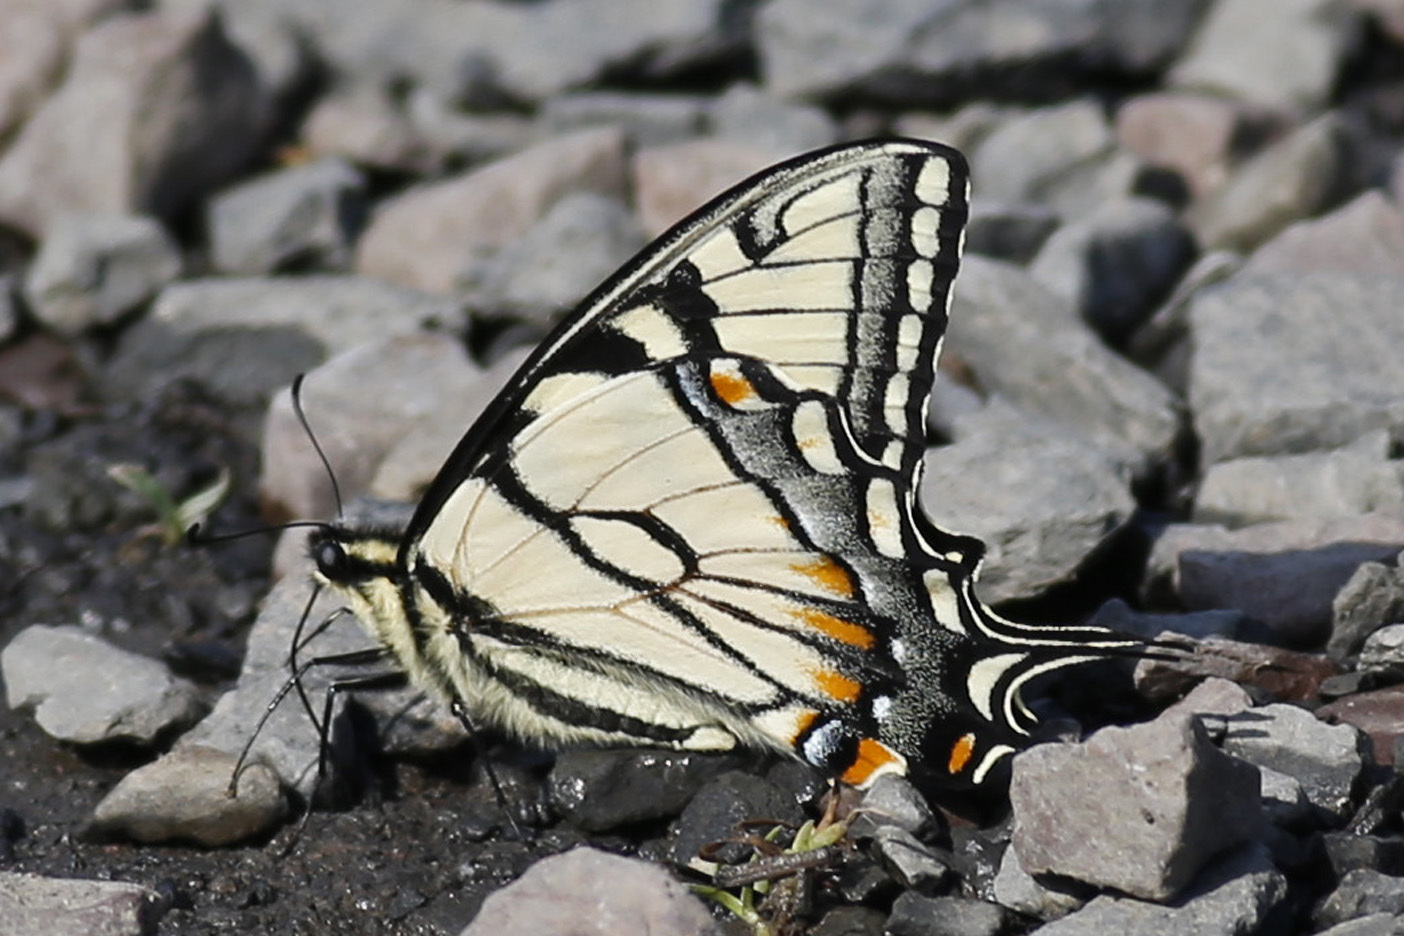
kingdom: Animalia
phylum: Arthropoda
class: Insecta
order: Lepidoptera
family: Papilionidae
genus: Papilio
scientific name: Papilio glaucus
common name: Tiger swallowtail
